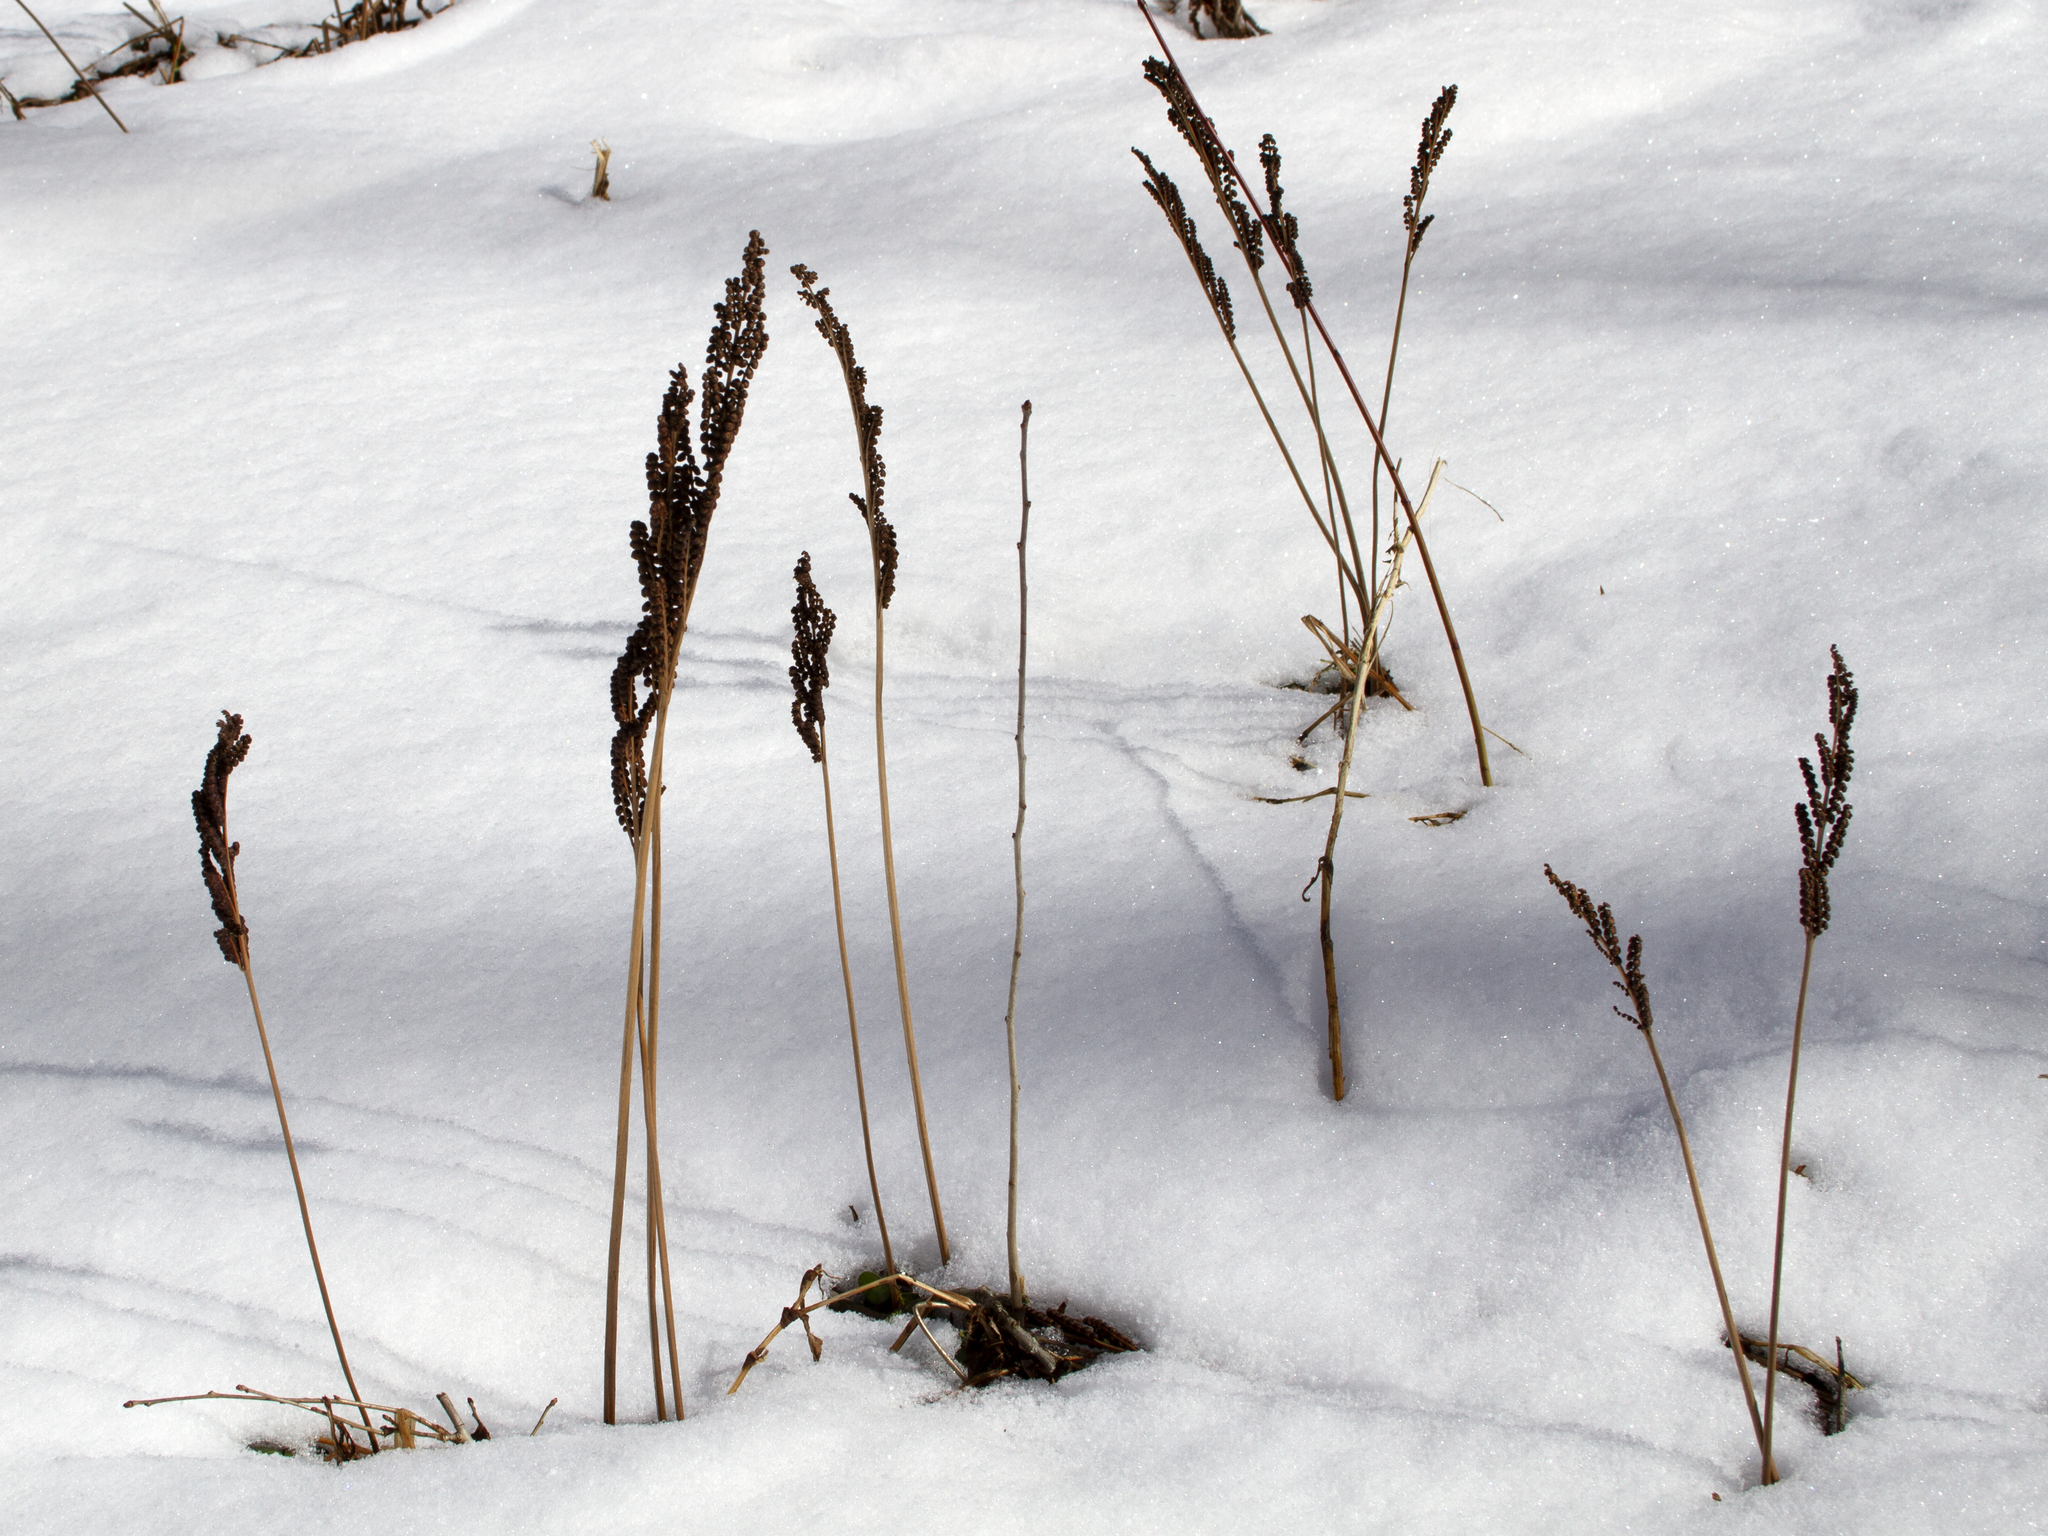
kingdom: Plantae
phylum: Tracheophyta
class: Polypodiopsida
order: Polypodiales
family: Onocleaceae
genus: Onoclea
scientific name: Onoclea sensibilis
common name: Sensitive fern
